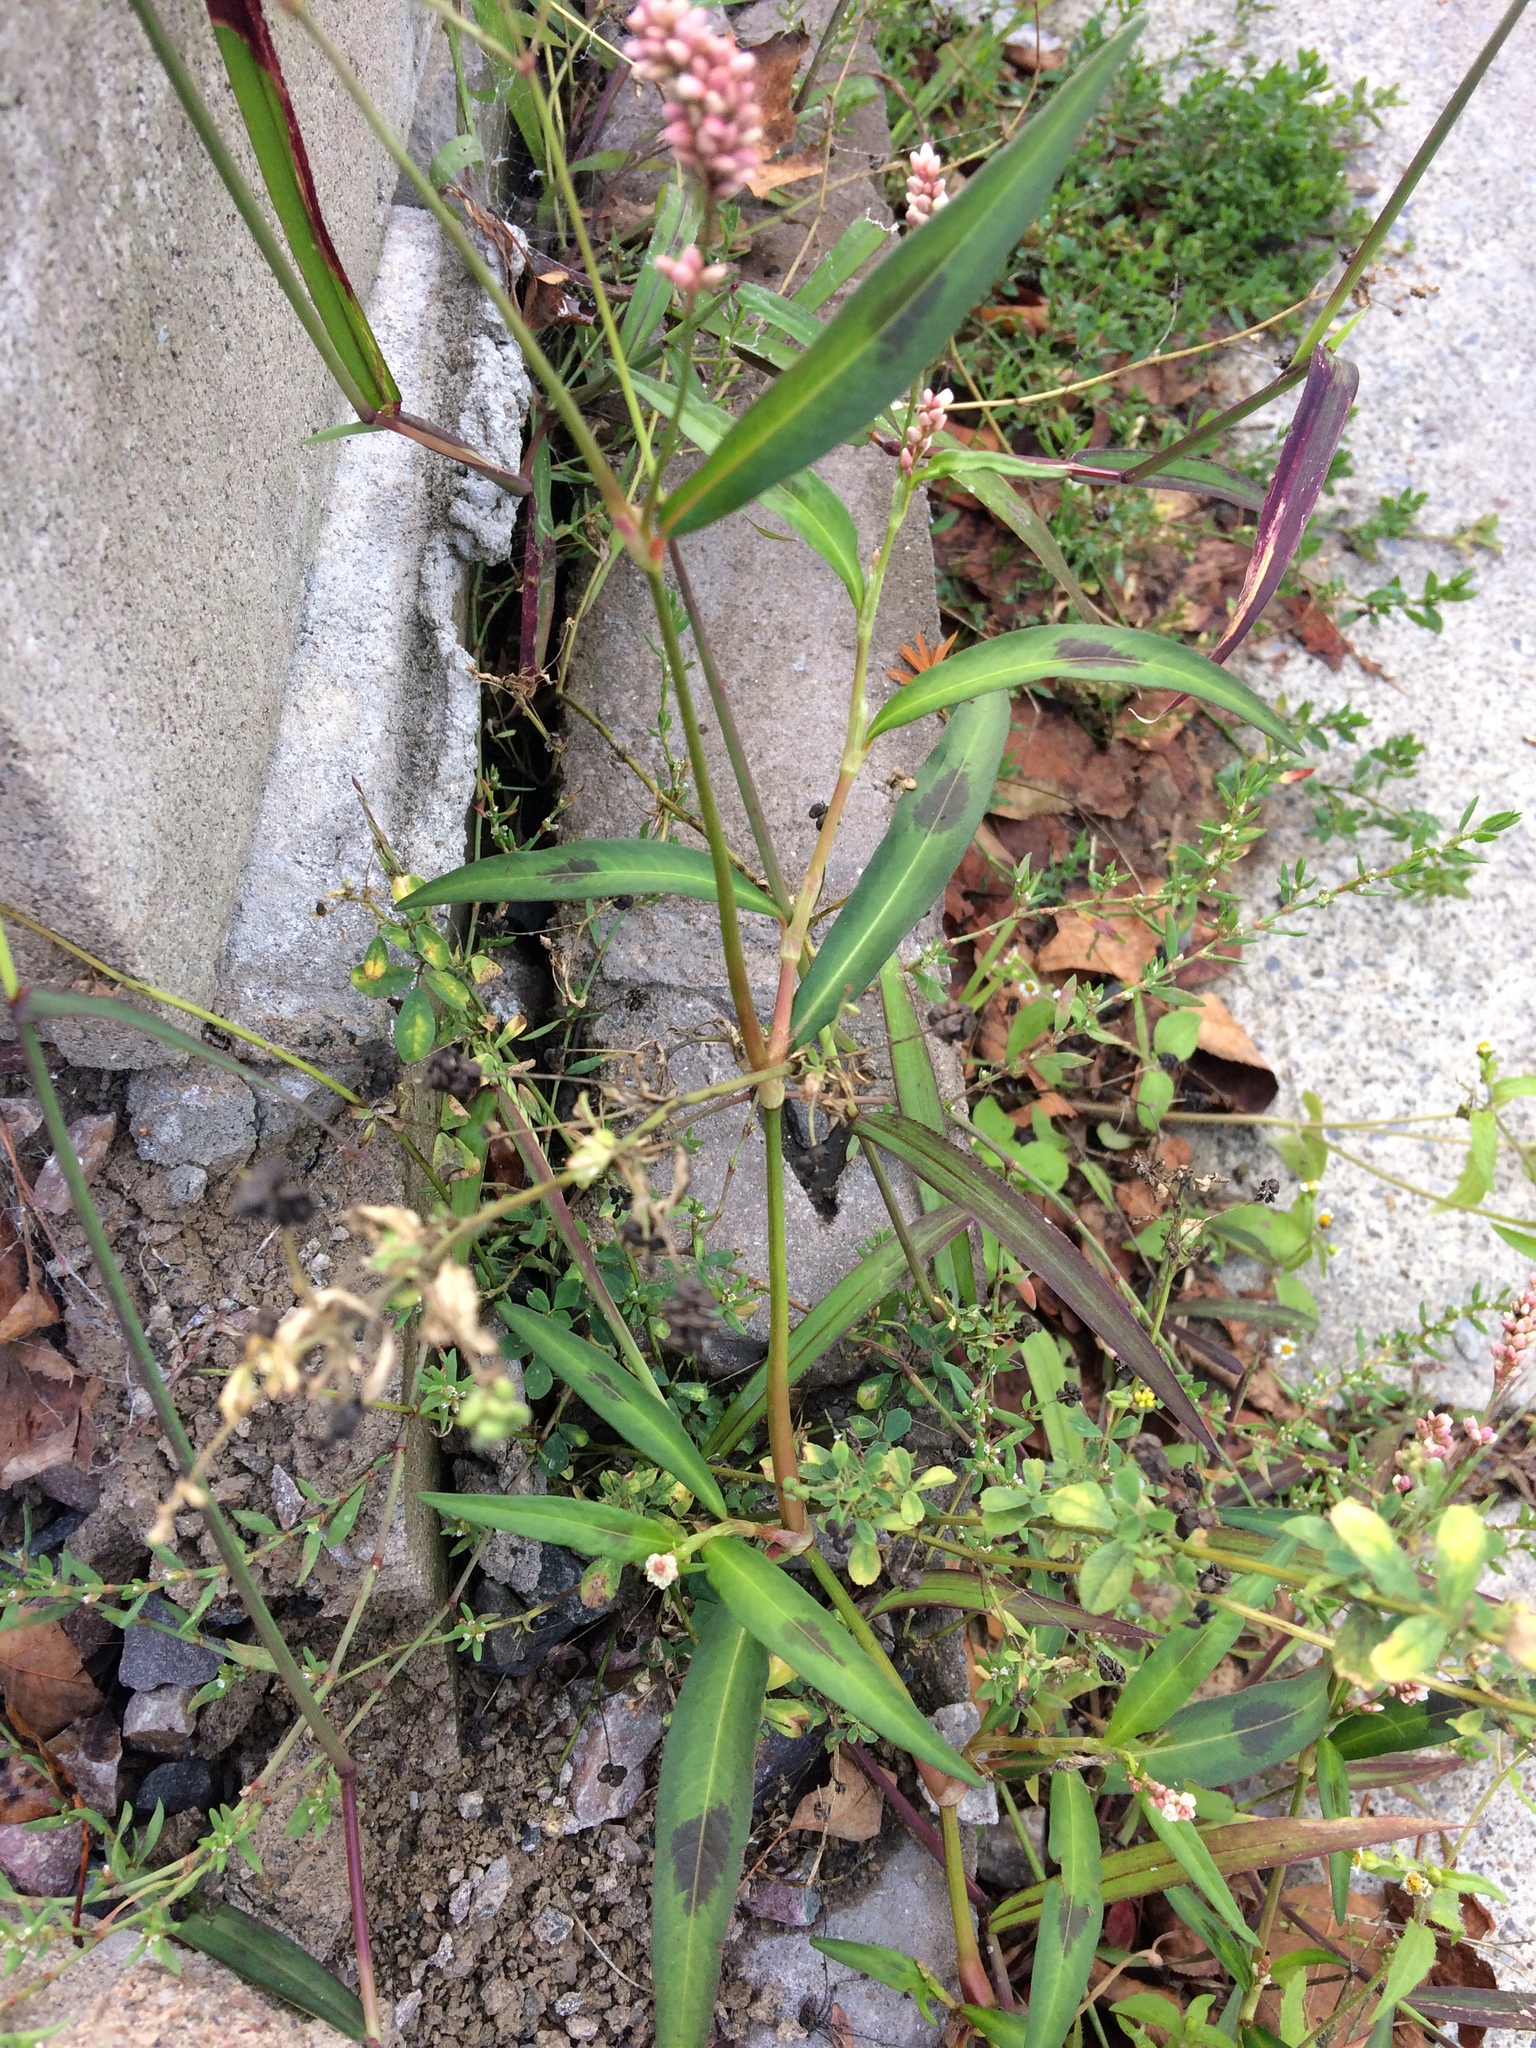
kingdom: Plantae
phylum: Tracheophyta
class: Magnoliopsida
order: Caryophyllales
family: Polygonaceae
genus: Persicaria
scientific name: Persicaria maculosa
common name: Redshank
